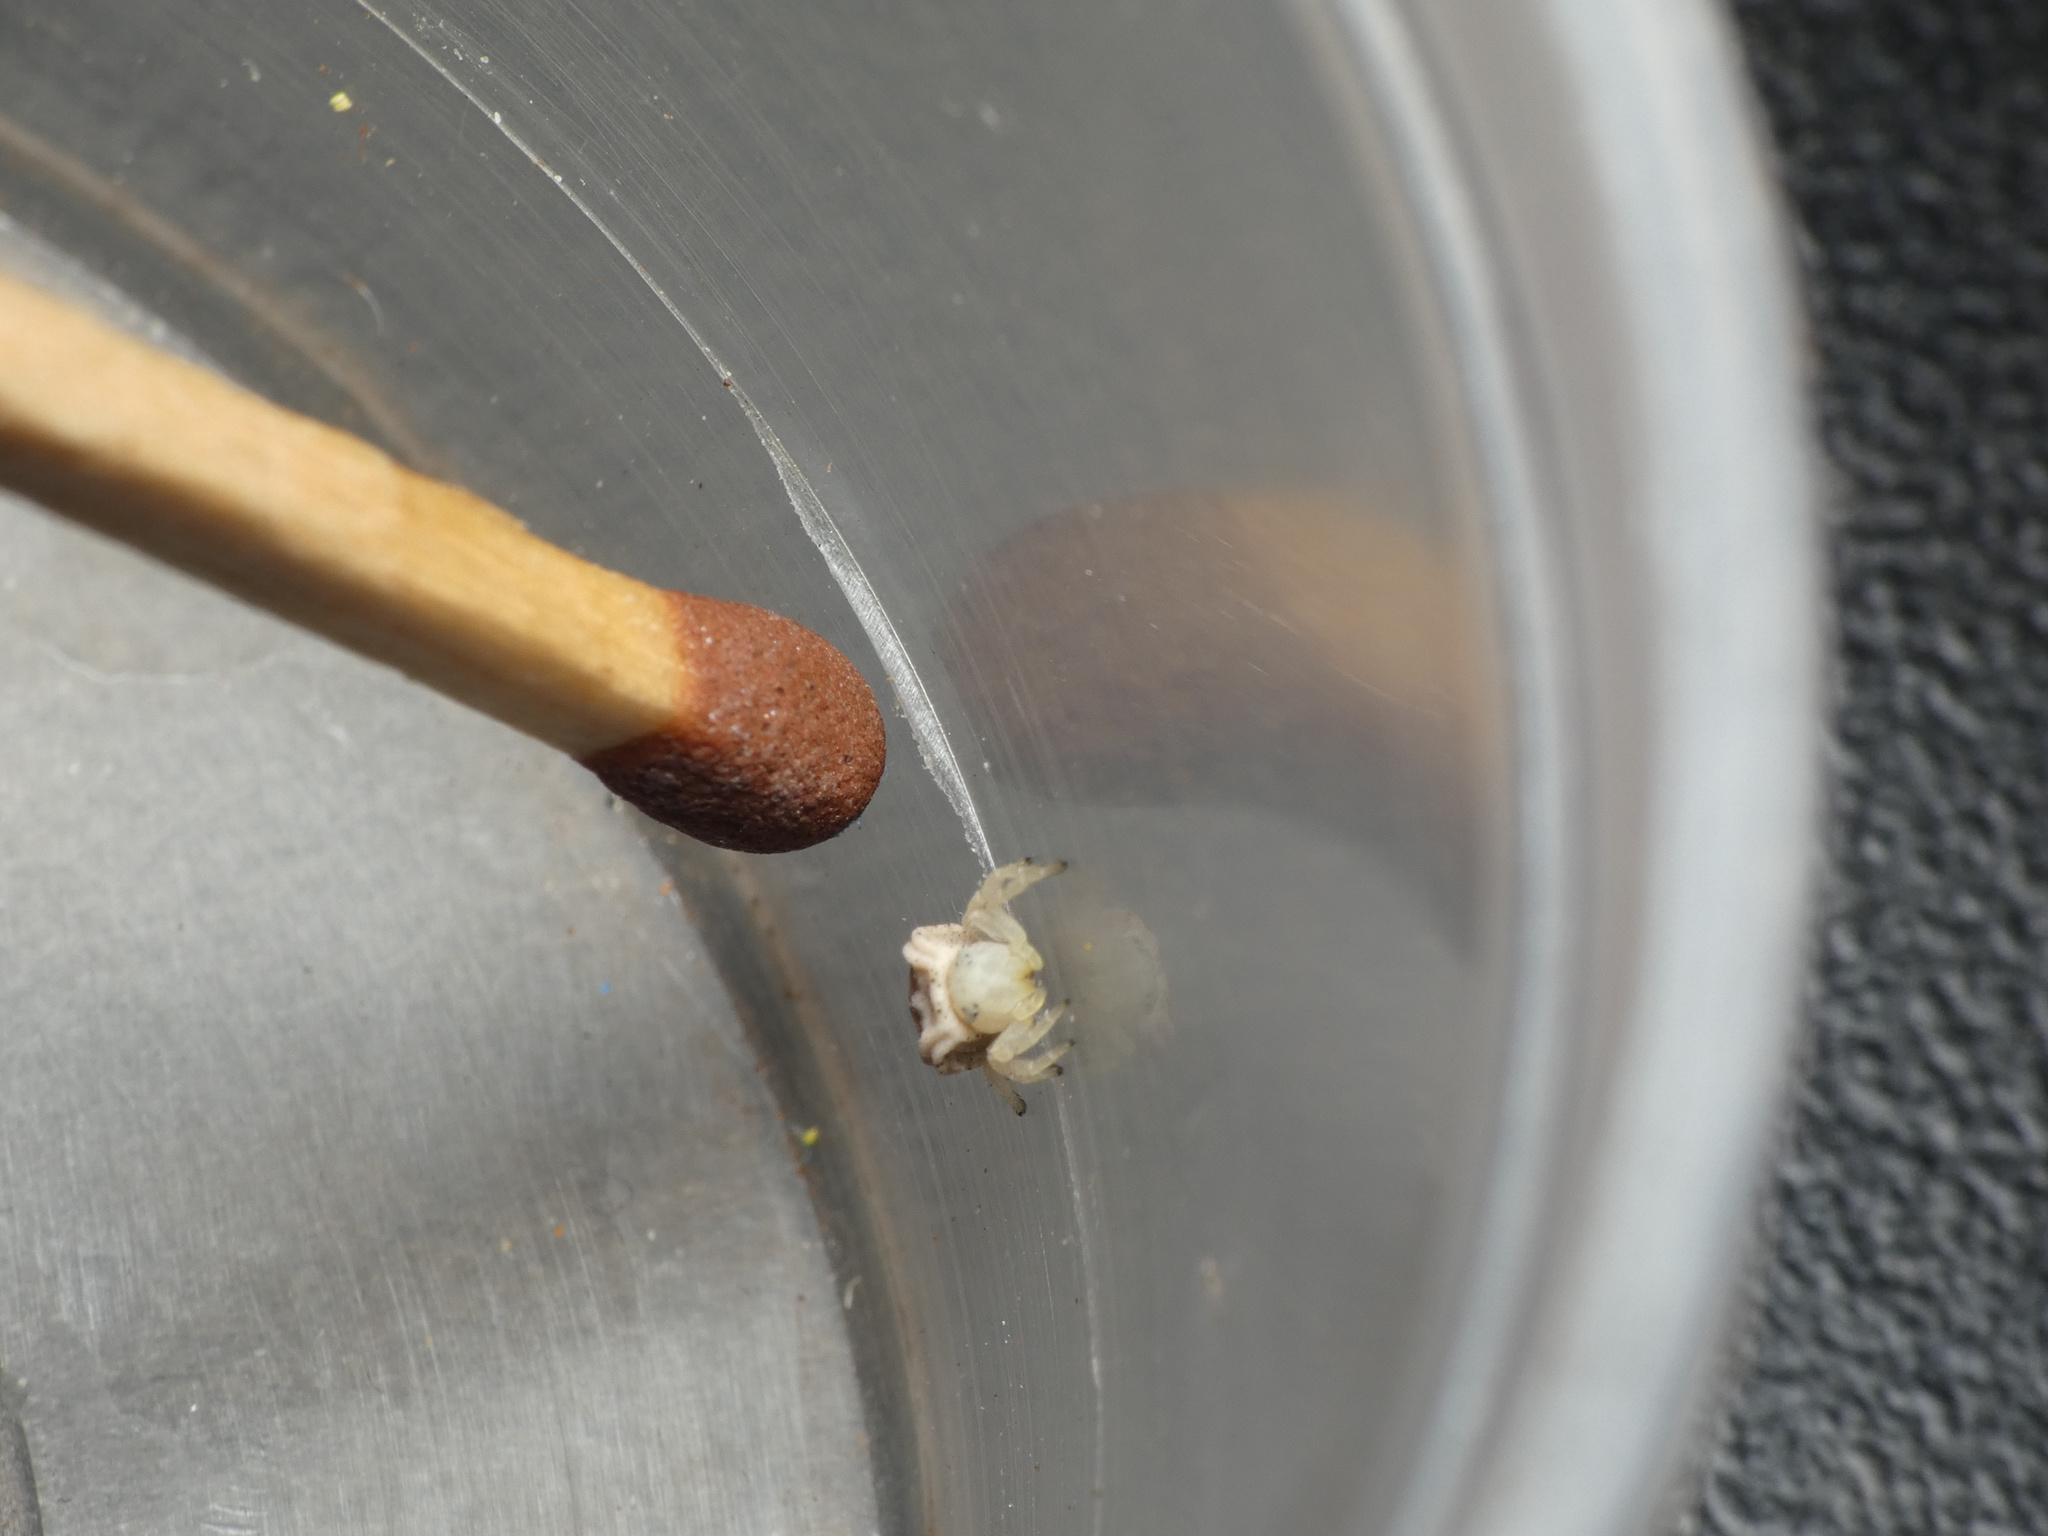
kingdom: Animalia
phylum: Arthropoda
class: Arachnida
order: Araneae
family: Thomisidae
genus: Parabomis
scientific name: Parabomis megae
